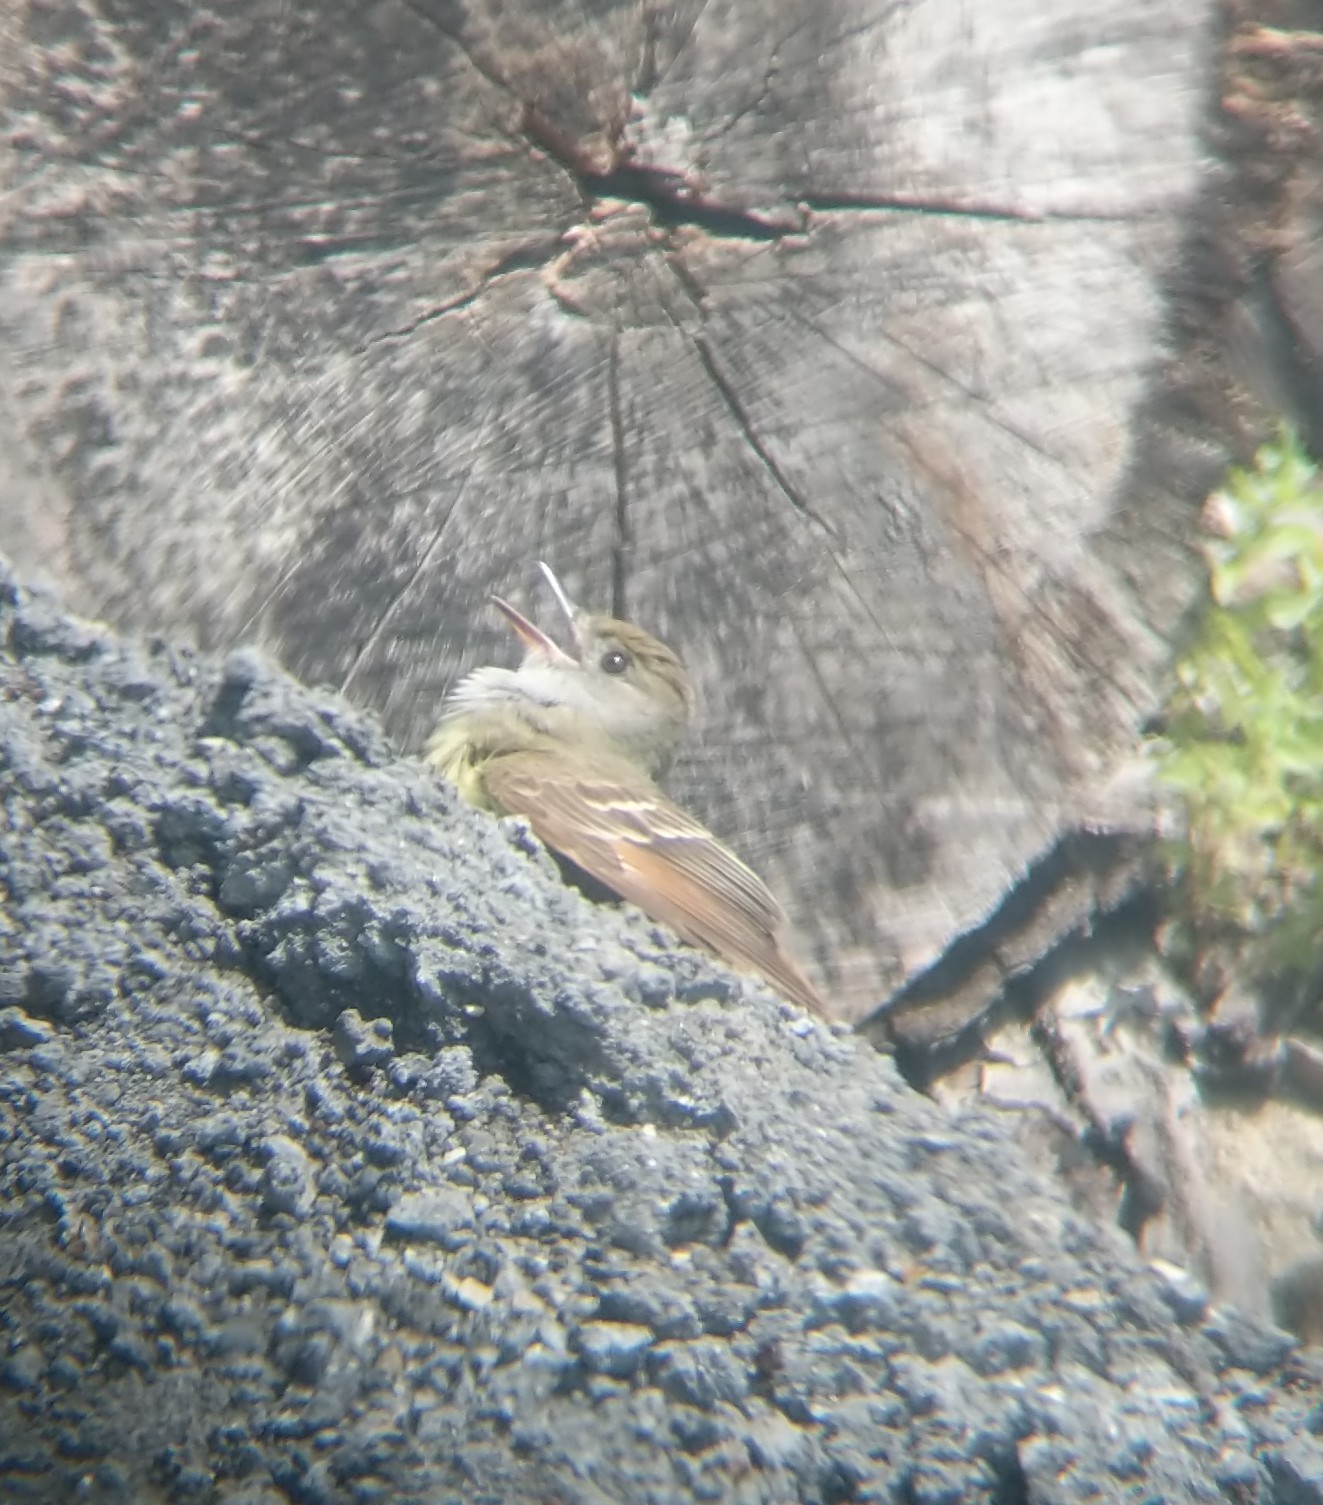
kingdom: Animalia
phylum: Chordata
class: Aves
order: Passeriformes
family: Tyrannidae
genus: Myiarchus
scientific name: Myiarchus crinitus
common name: Great crested flycatcher
